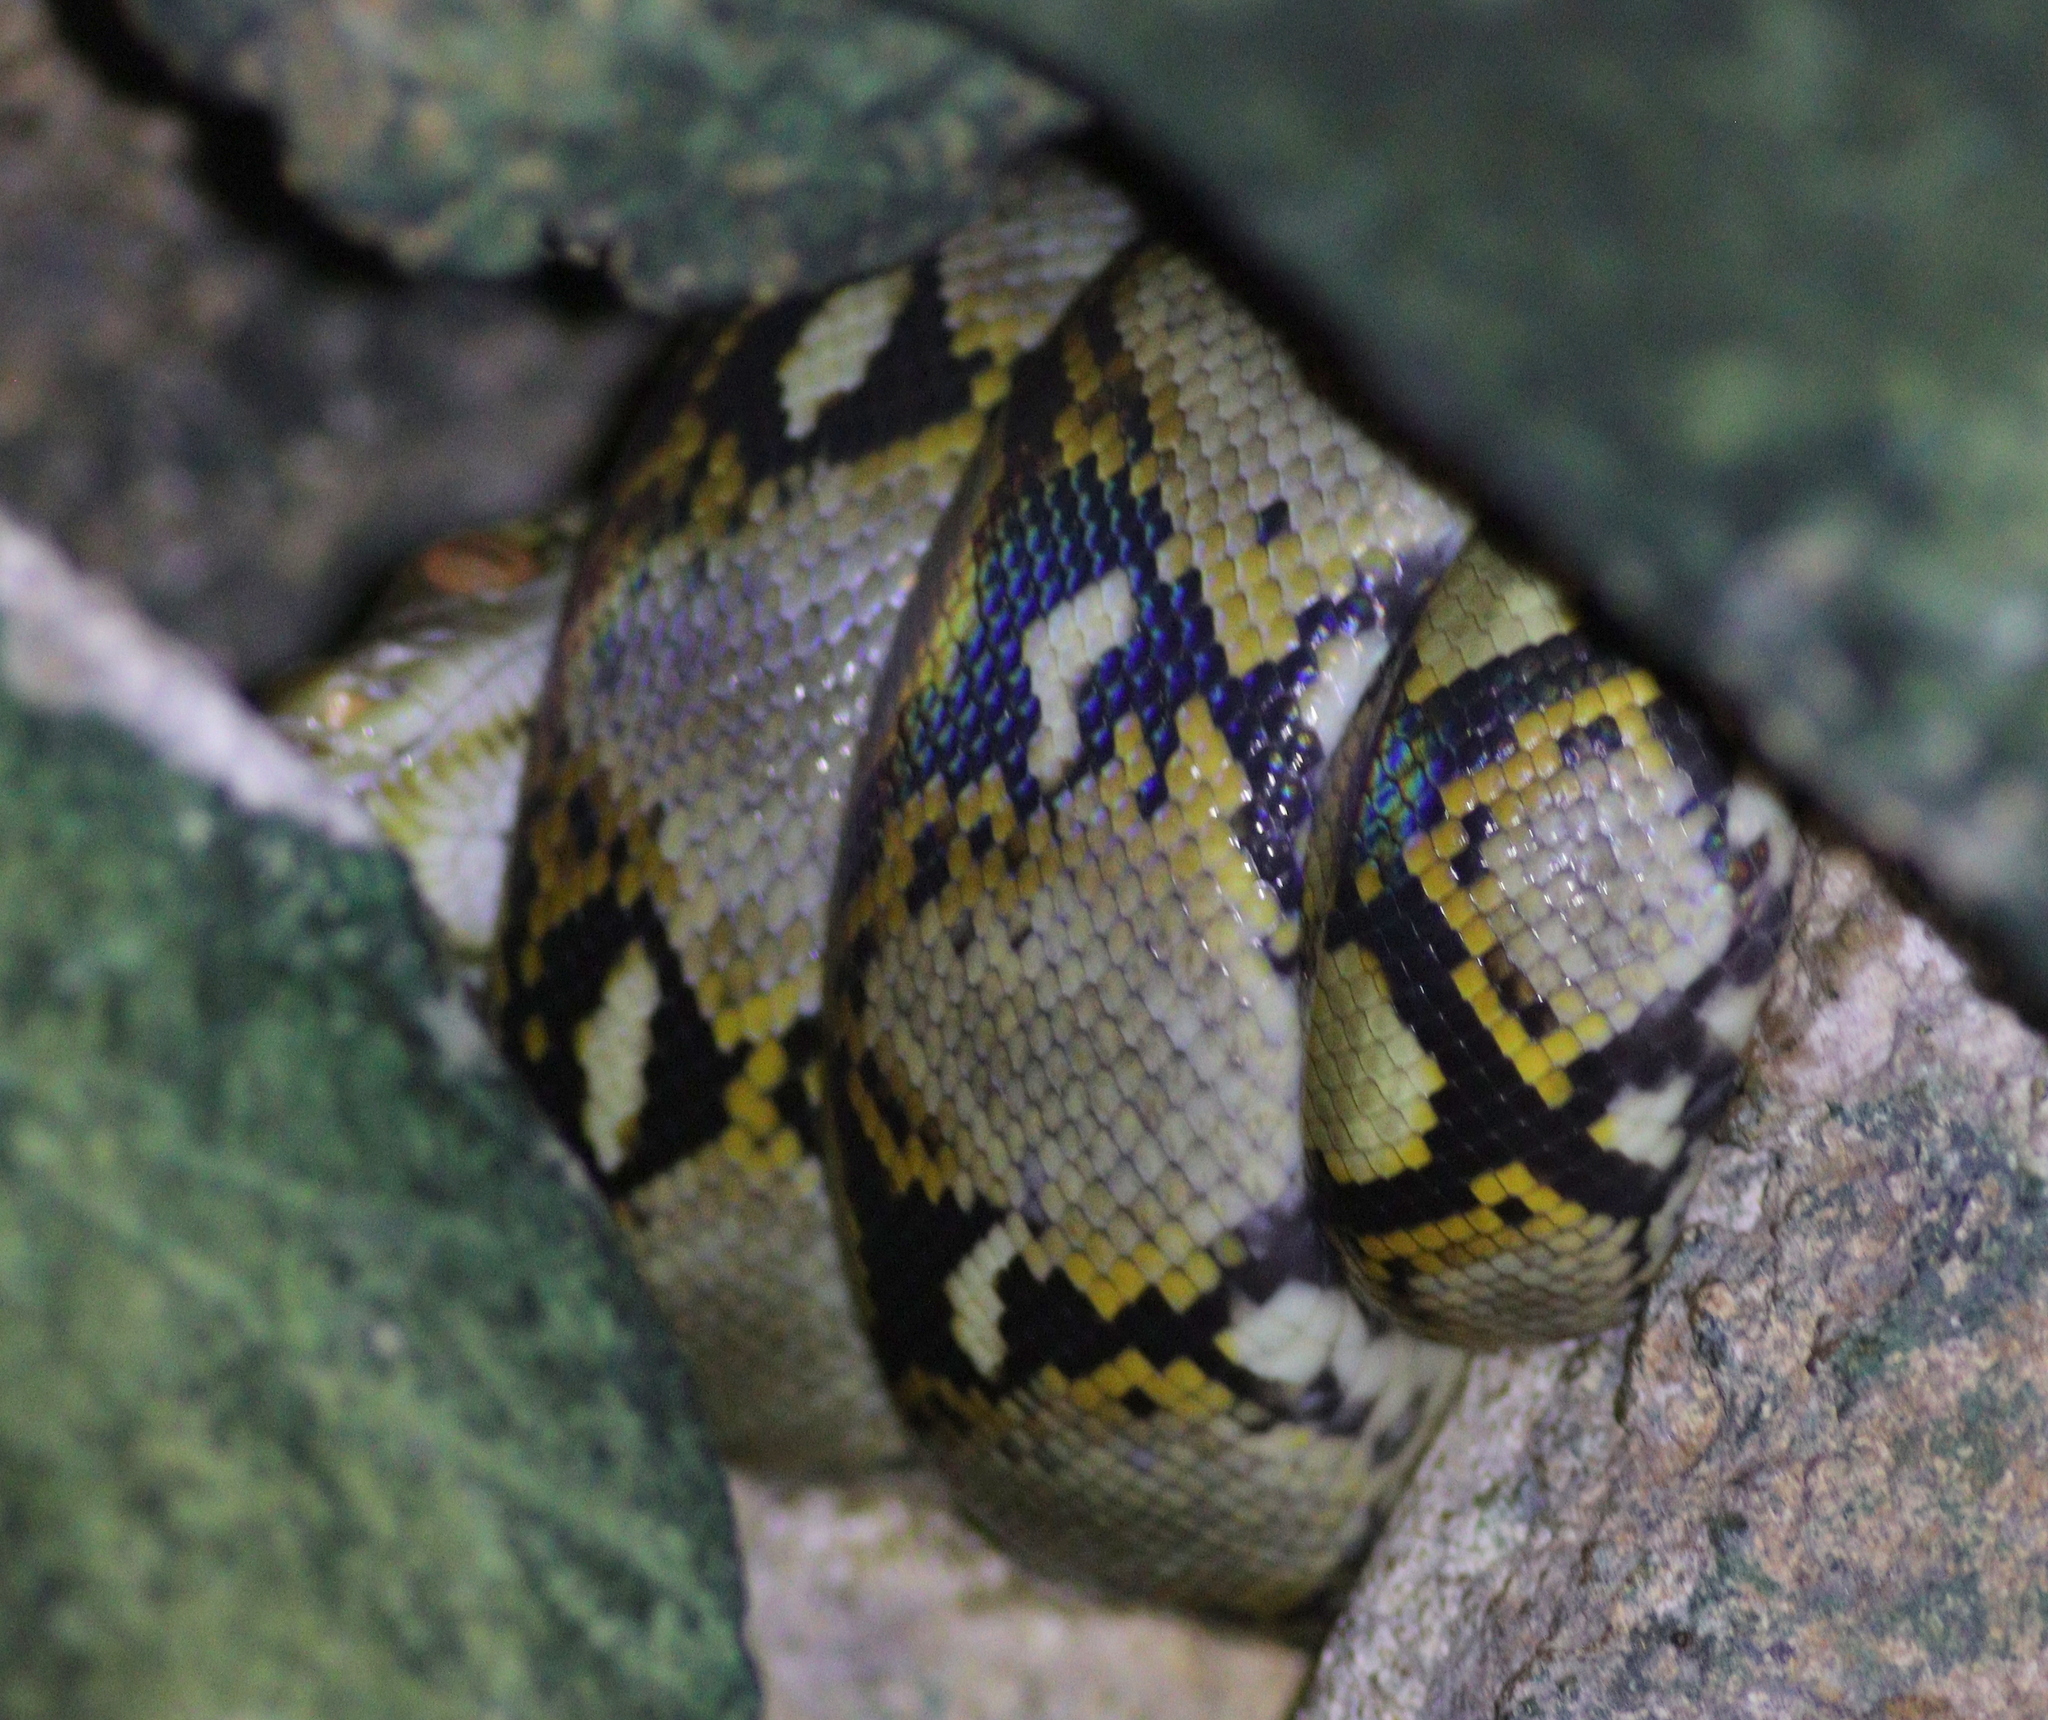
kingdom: Animalia
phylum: Chordata
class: Squamata
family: Pythonidae
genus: Malayopython
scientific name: Malayopython reticulatus
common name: Reticulated python
